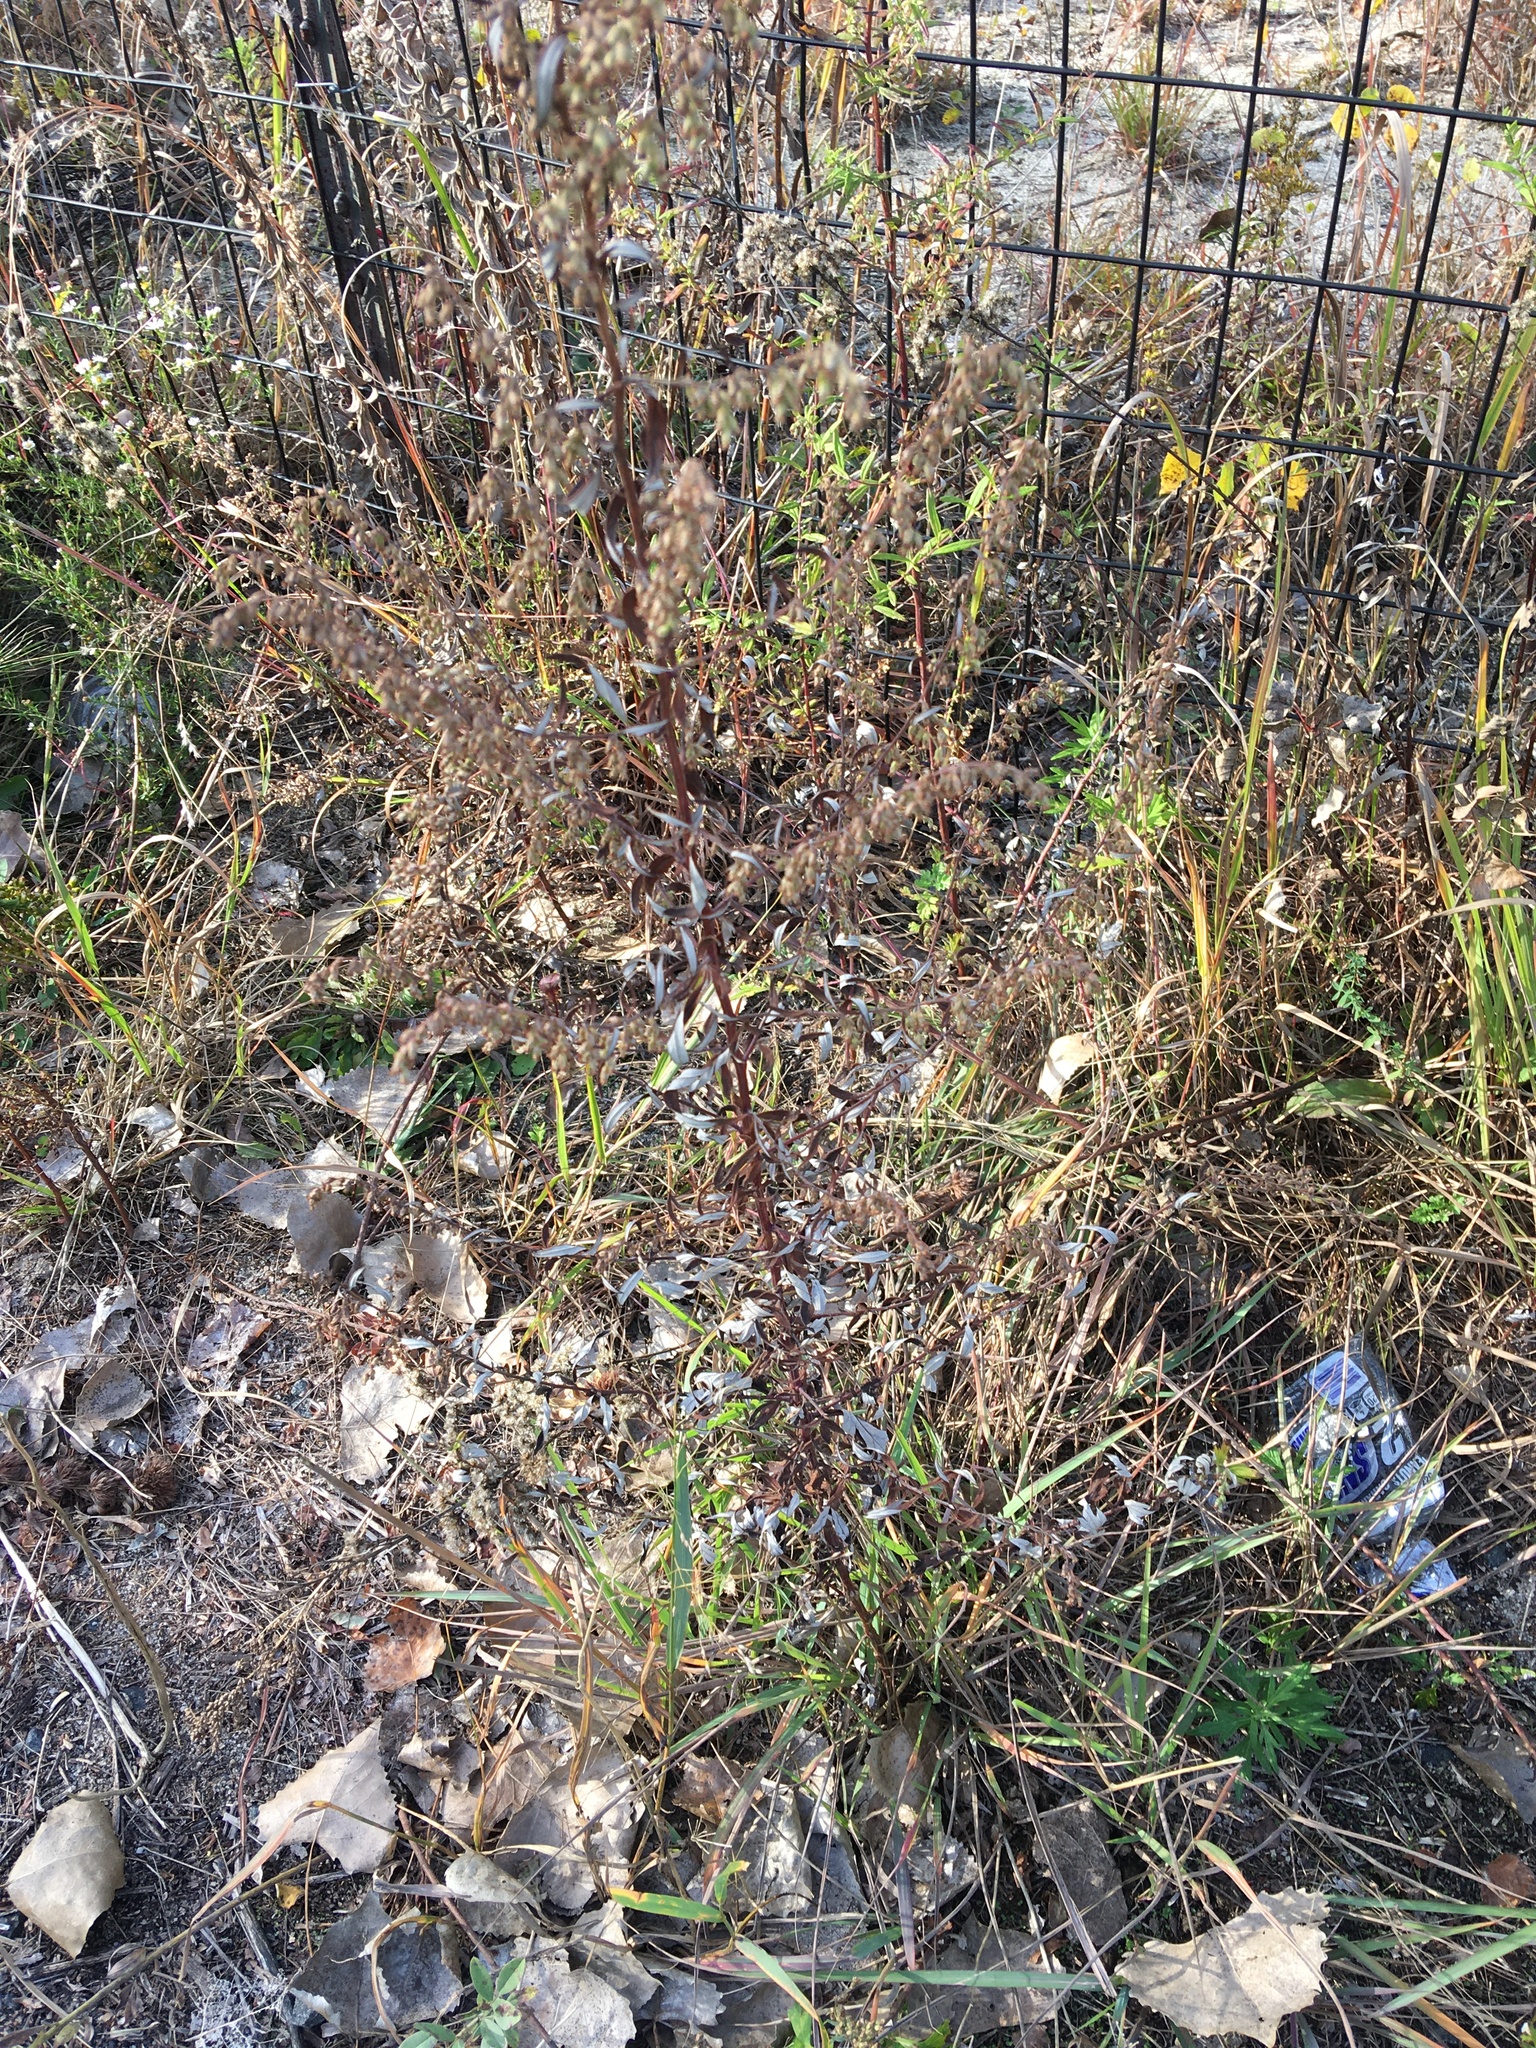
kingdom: Plantae
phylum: Tracheophyta
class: Magnoliopsida
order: Asterales
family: Asteraceae
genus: Artemisia
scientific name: Artemisia vulgaris
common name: Mugwort
